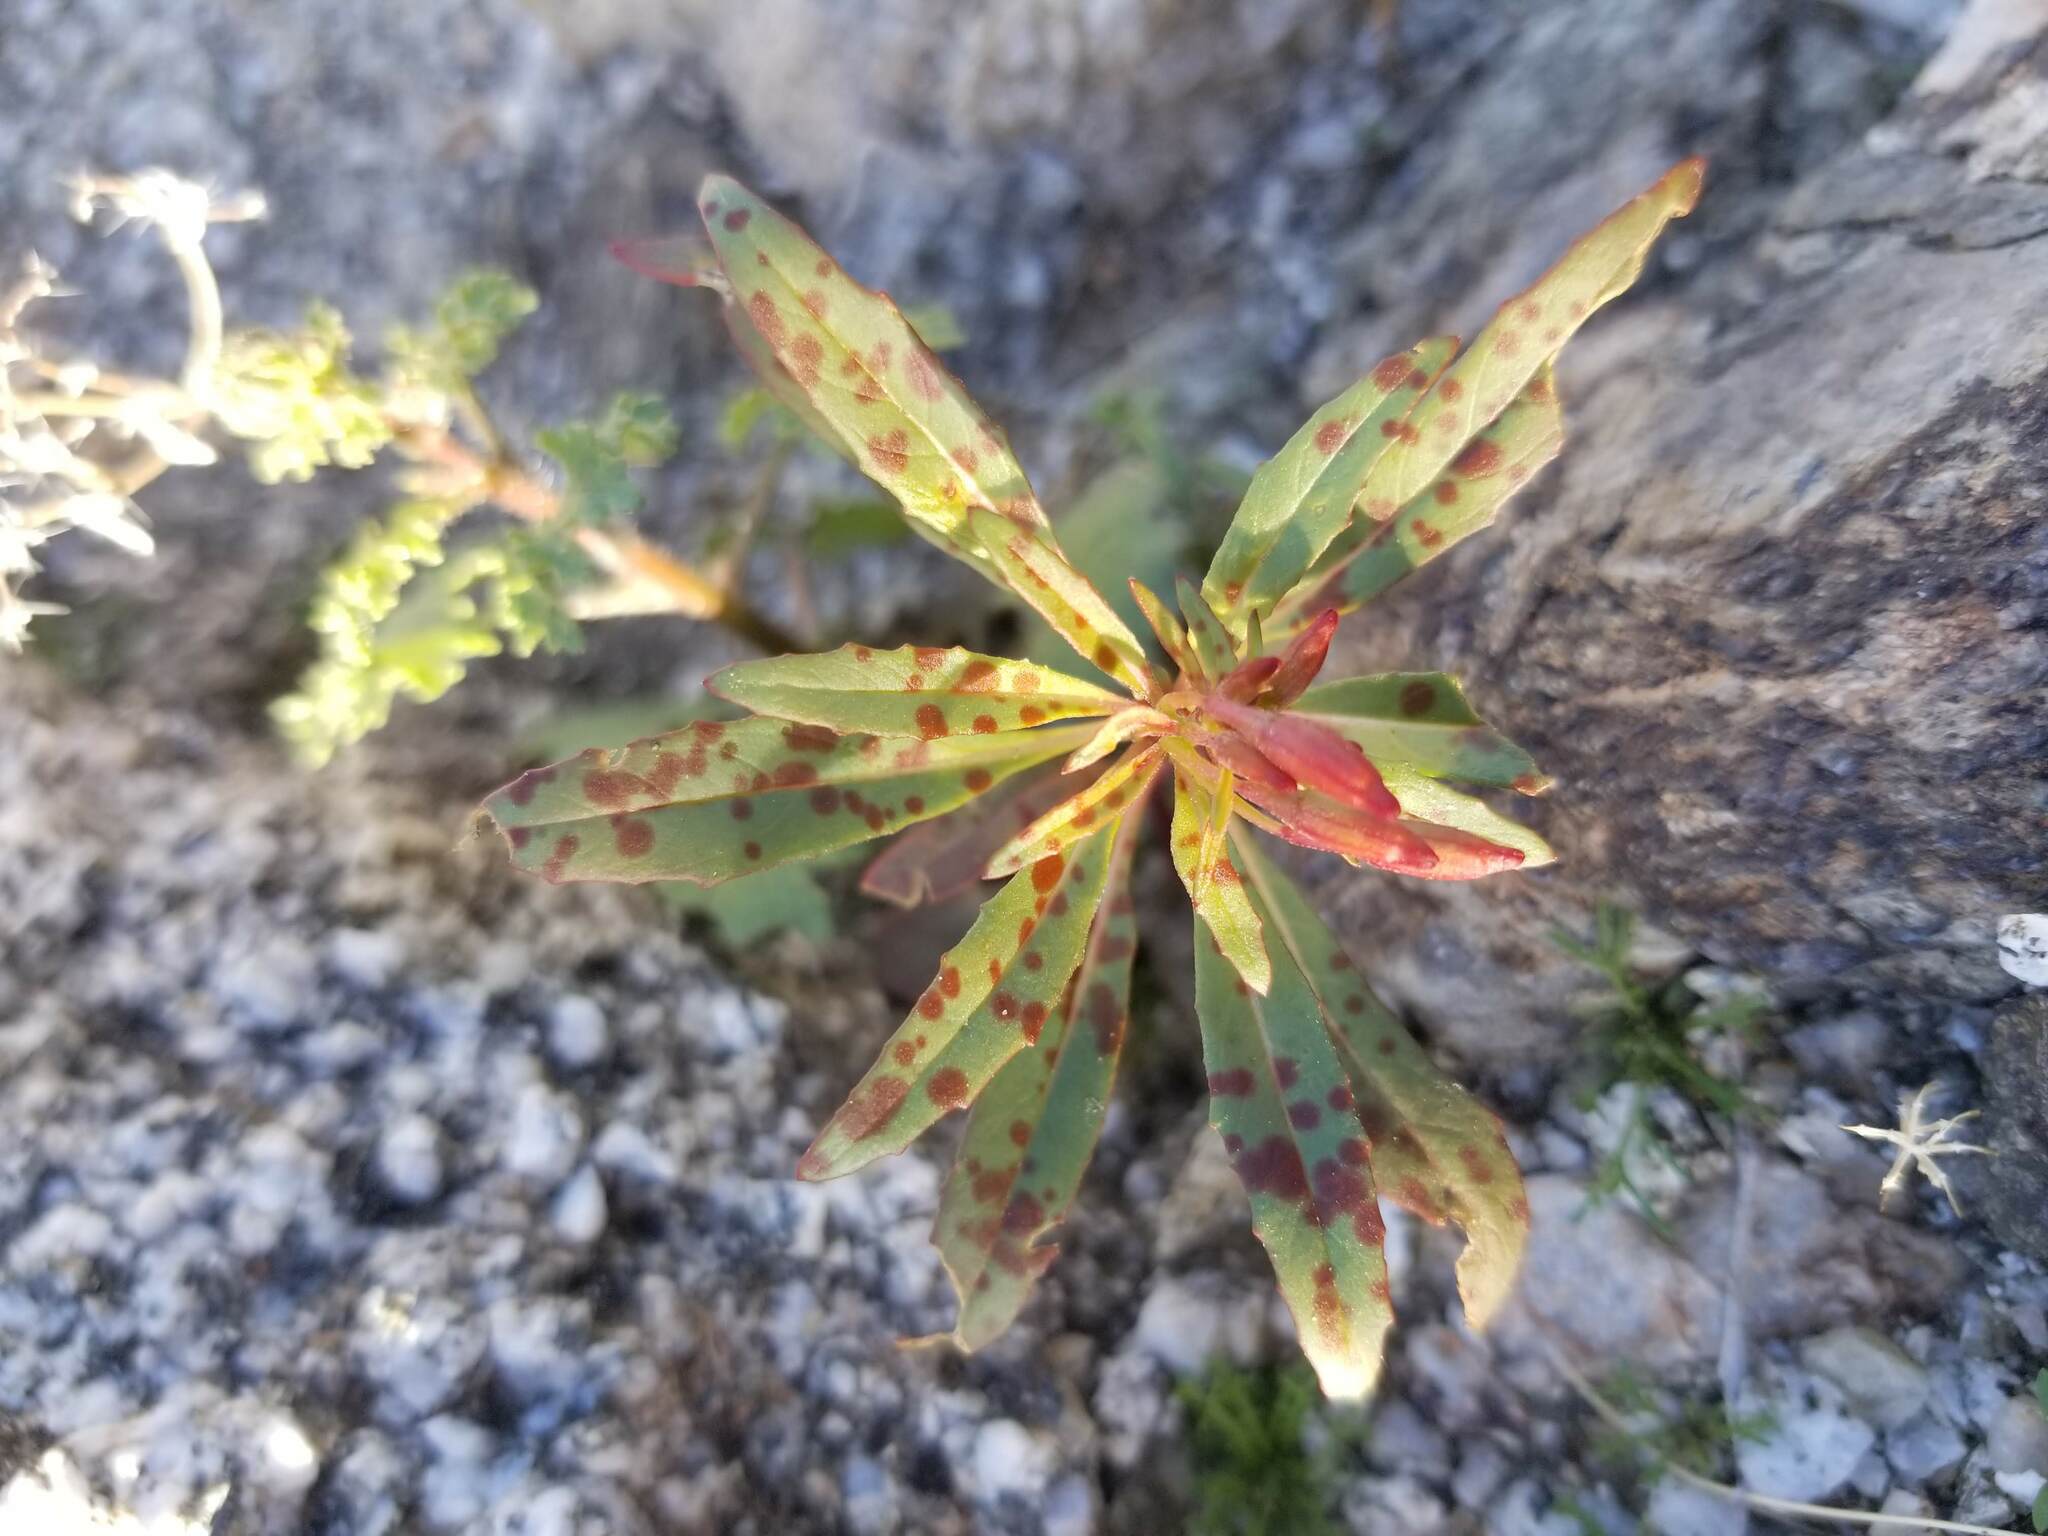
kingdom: Plantae
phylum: Tracheophyta
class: Magnoliopsida
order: Myrtales
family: Onagraceae
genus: Eremothera
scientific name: Eremothera boothii
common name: Booth's evening primrose
